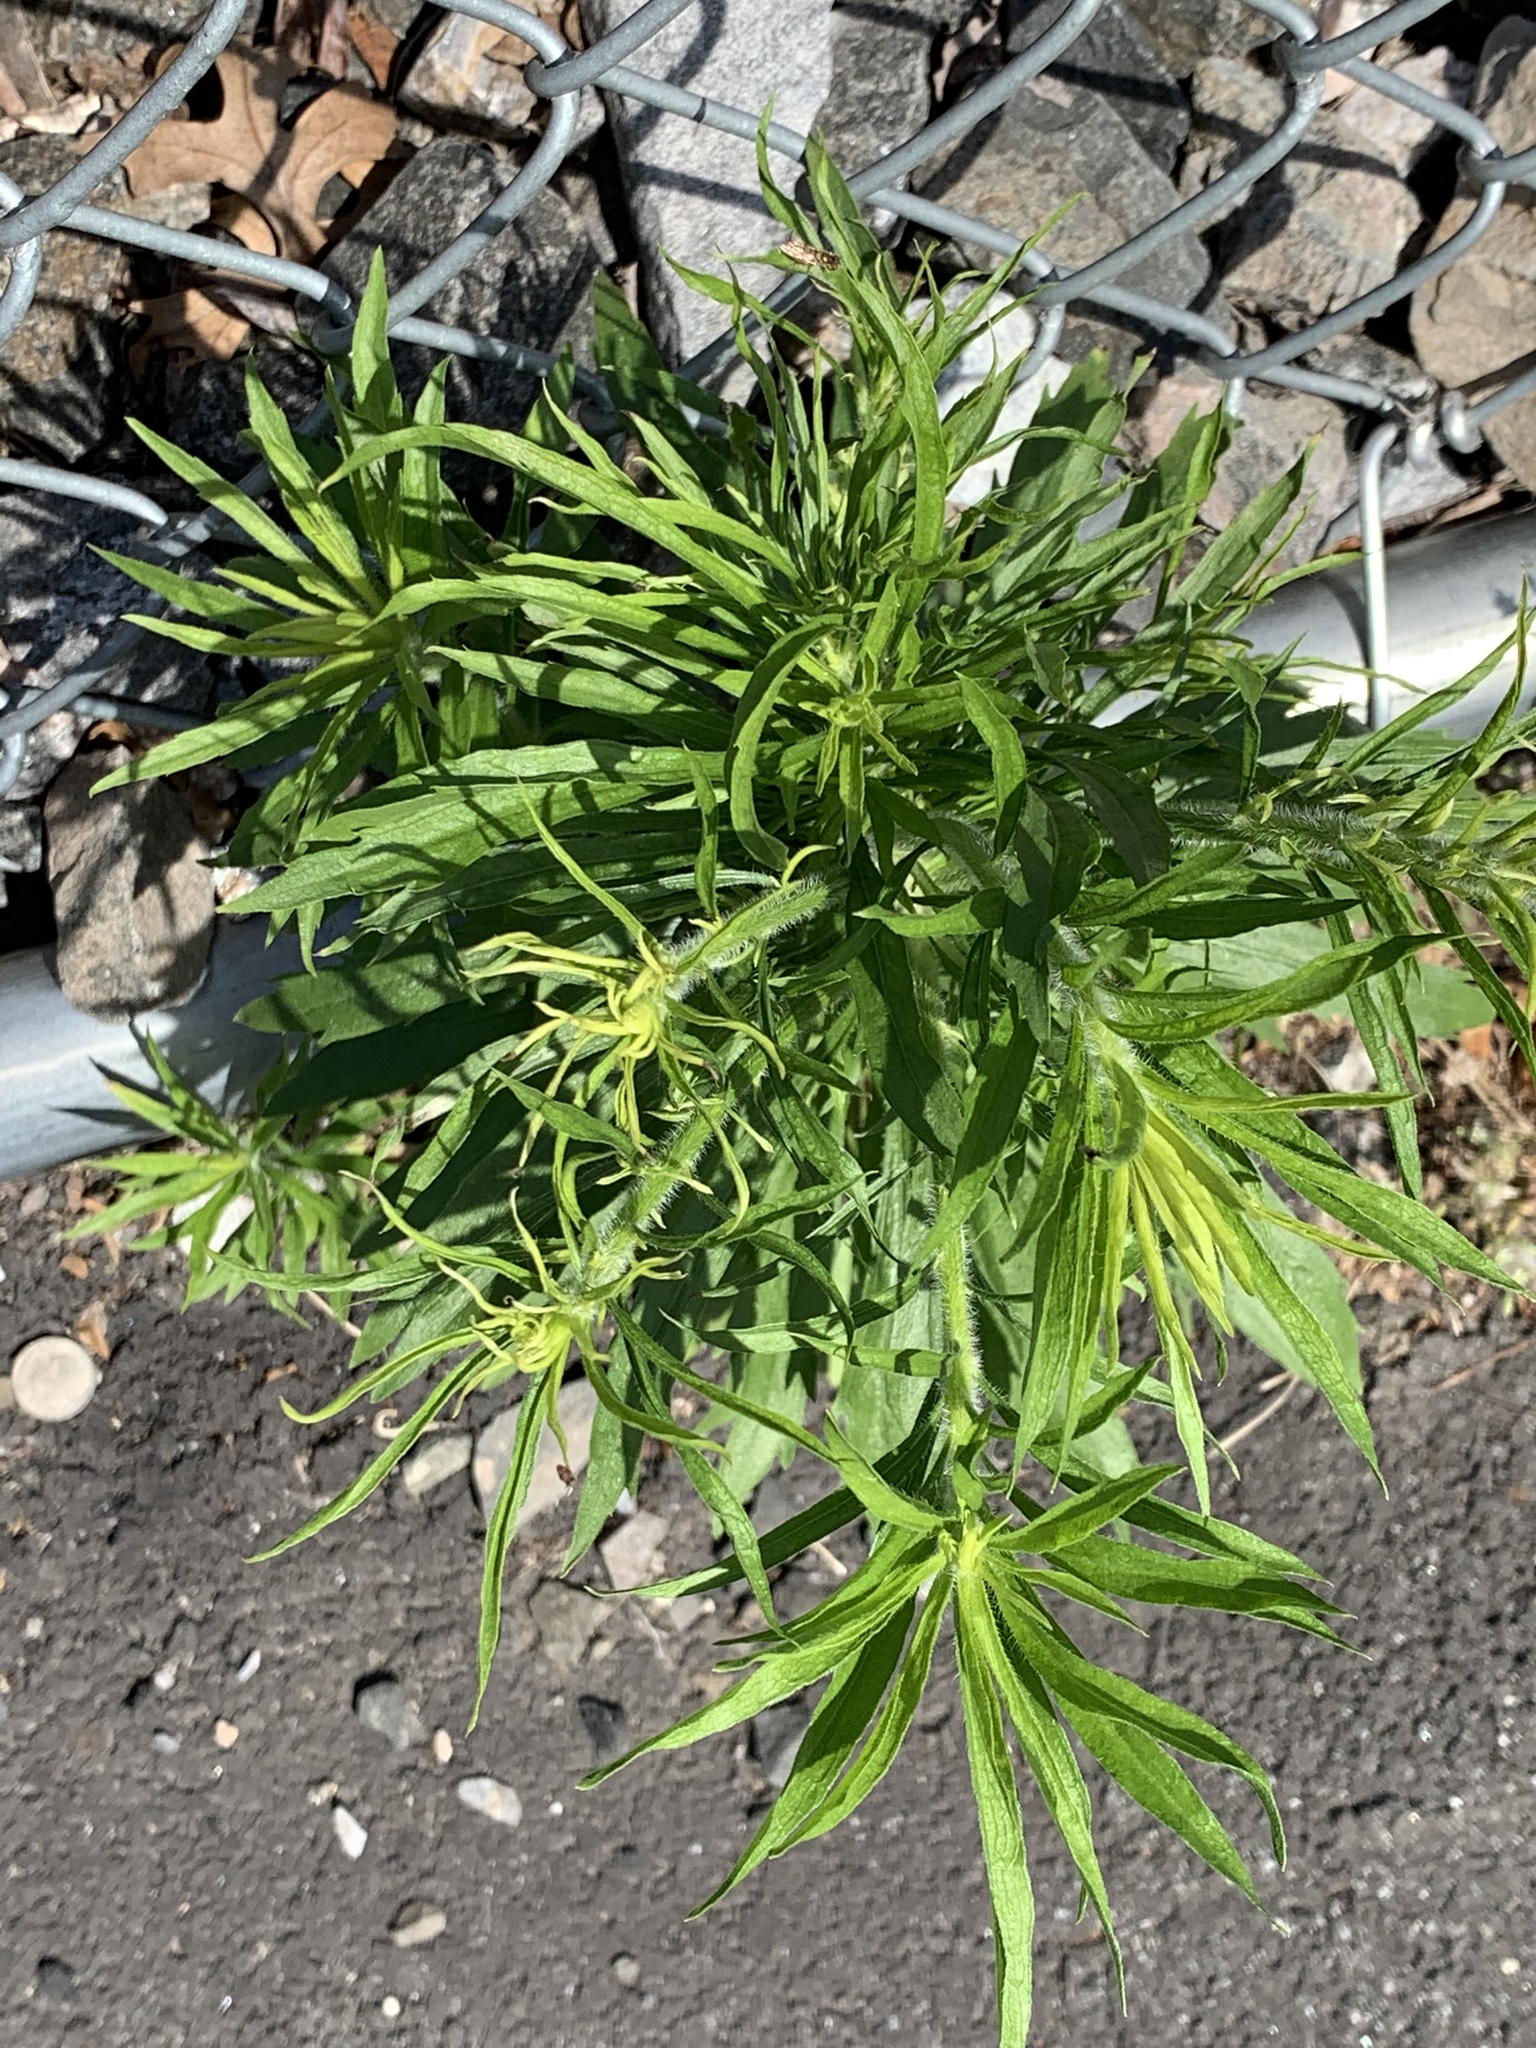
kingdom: Plantae
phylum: Tracheophyta
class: Magnoliopsida
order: Asterales
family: Asteraceae
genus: Erigeron
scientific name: Erigeron canadensis
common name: Canadian fleabane
